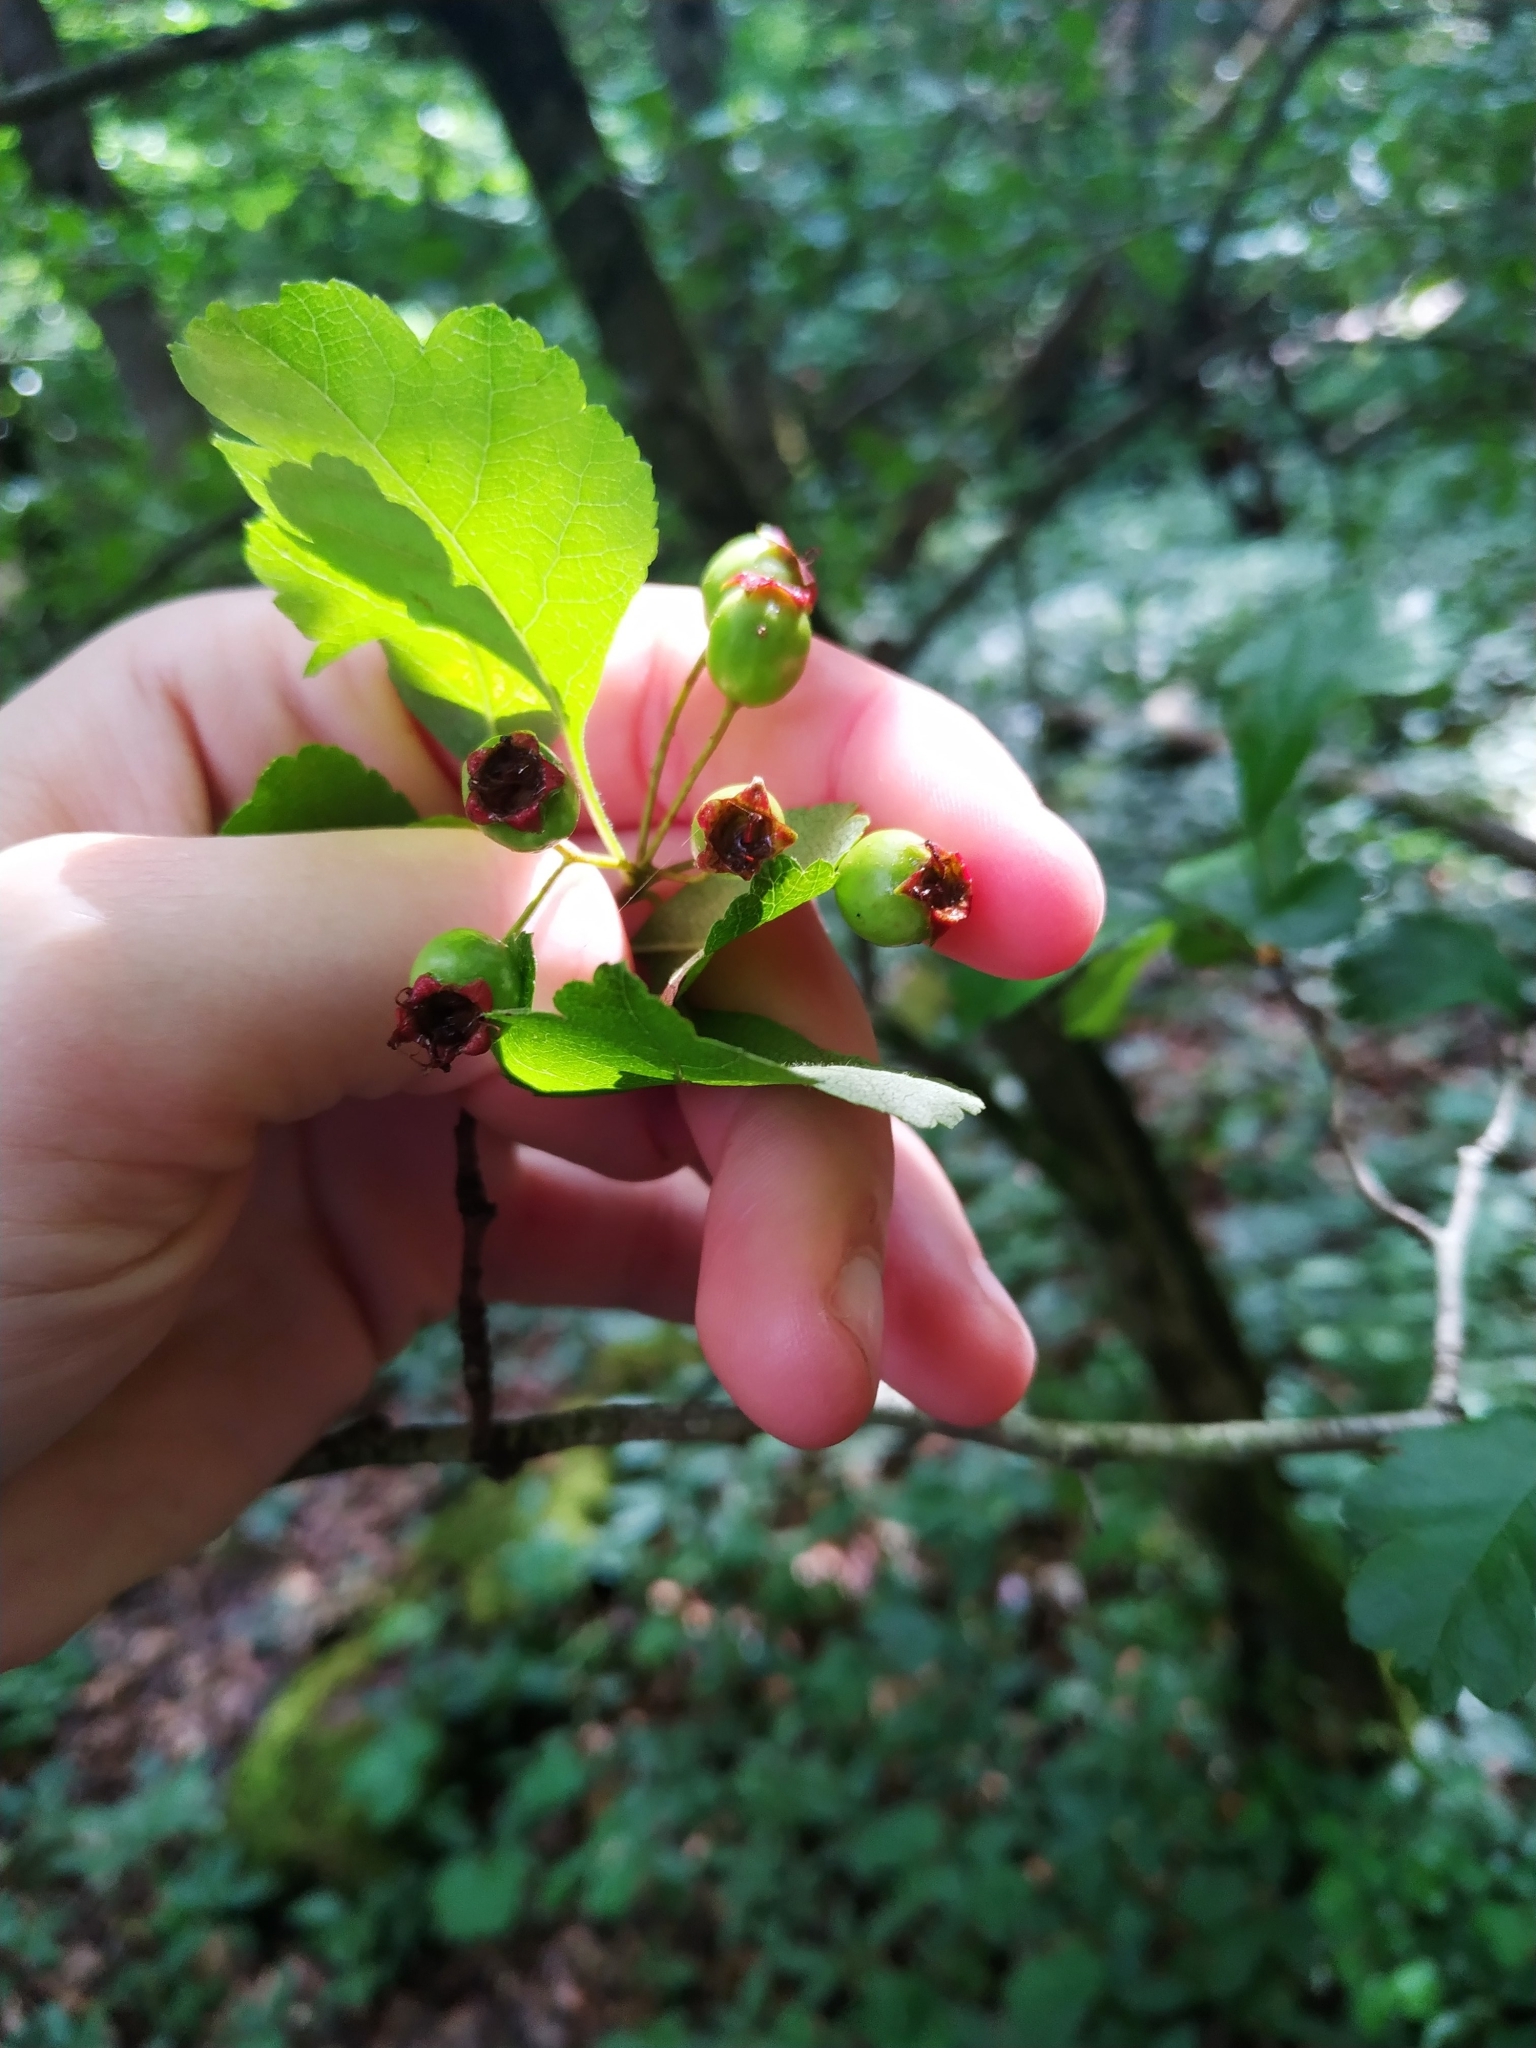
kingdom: Plantae
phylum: Tracheophyta
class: Magnoliopsida
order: Rosales
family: Rosaceae
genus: Crataegus
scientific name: Crataegus laevigata
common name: Midland hawthorn
